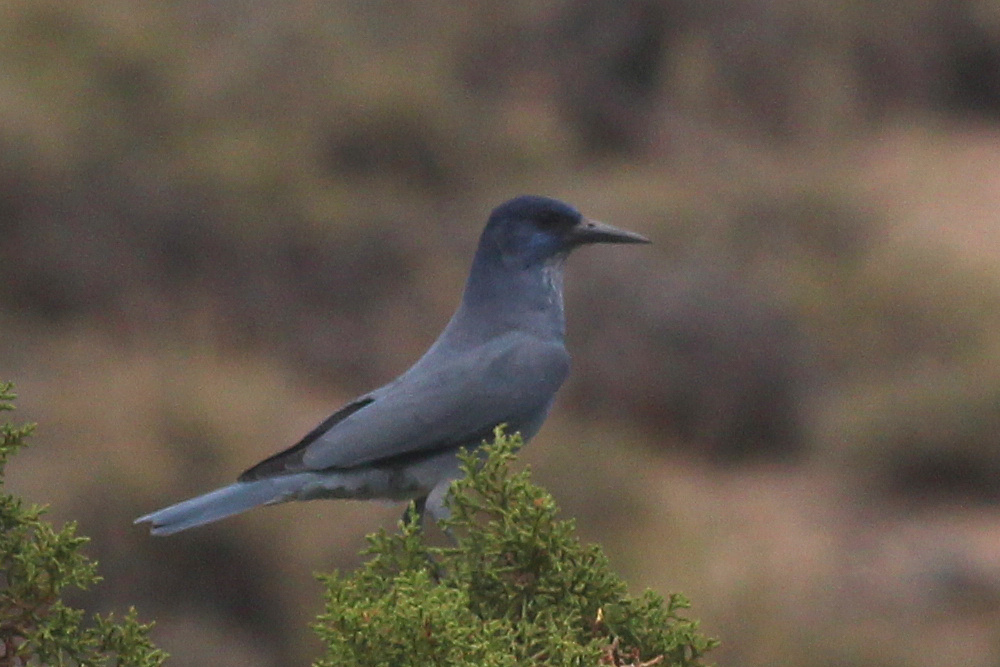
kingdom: Animalia
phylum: Chordata
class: Aves
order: Passeriformes
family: Corvidae
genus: Gymnorhinus
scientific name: Gymnorhinus cyanocephalus
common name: Pinyon jay
